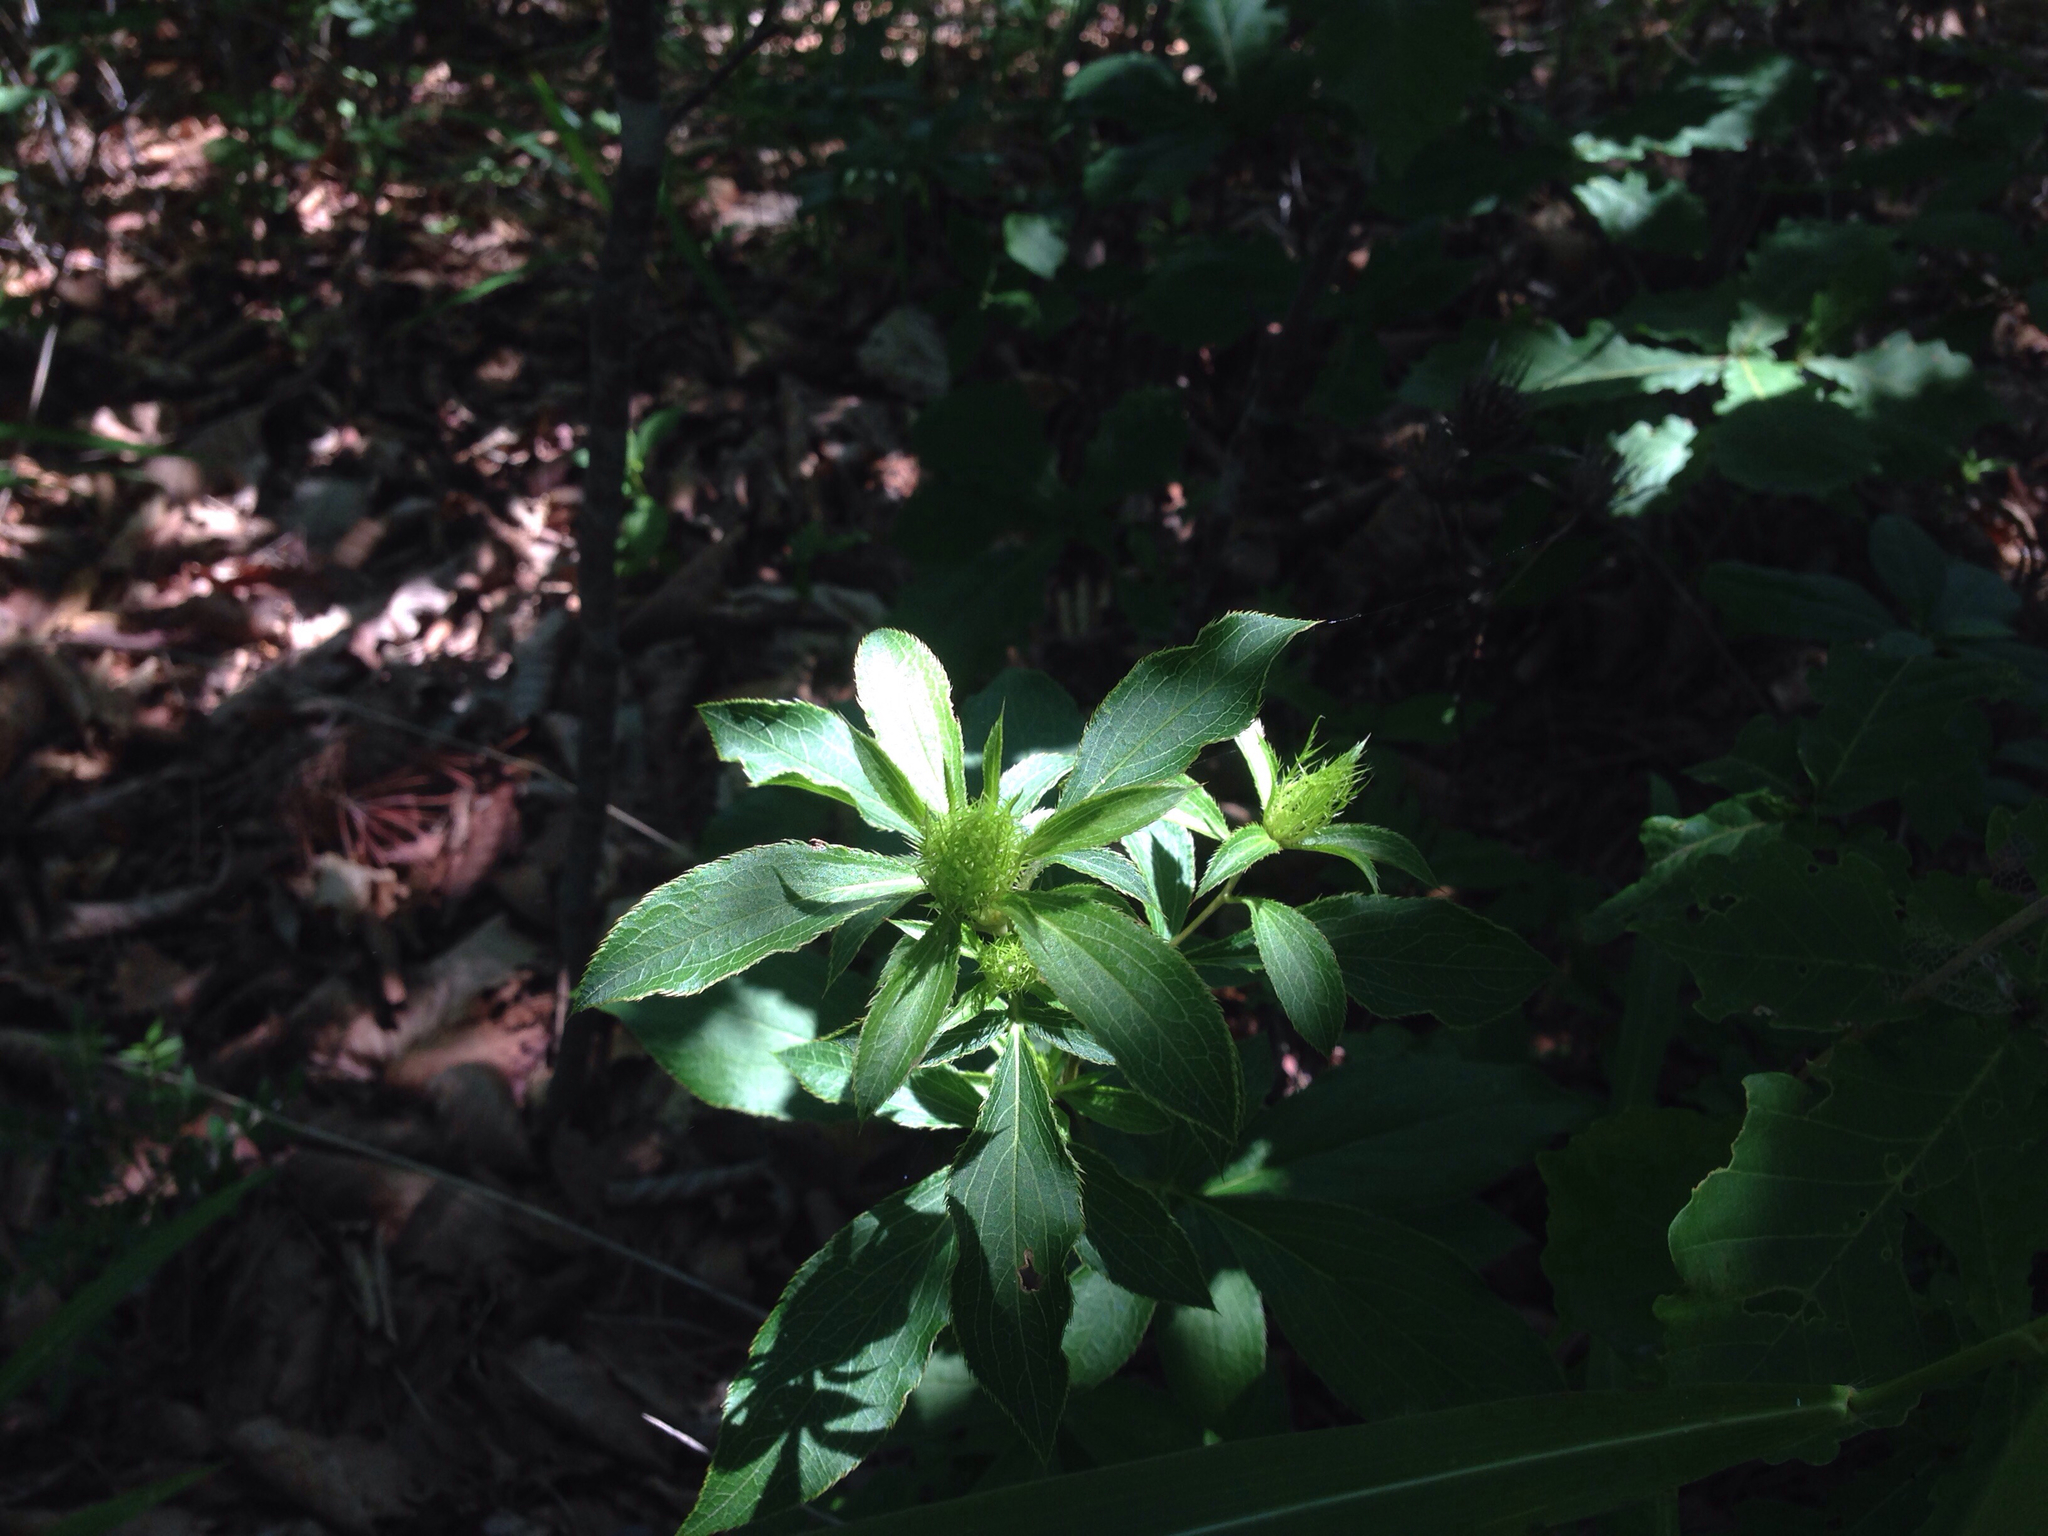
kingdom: Plantae
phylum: Tracheophyta
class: Magnoliopsida
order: Asterales
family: Asteraceae
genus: Atractylodes
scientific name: Atractylodes lancea
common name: Southern tsangshu
